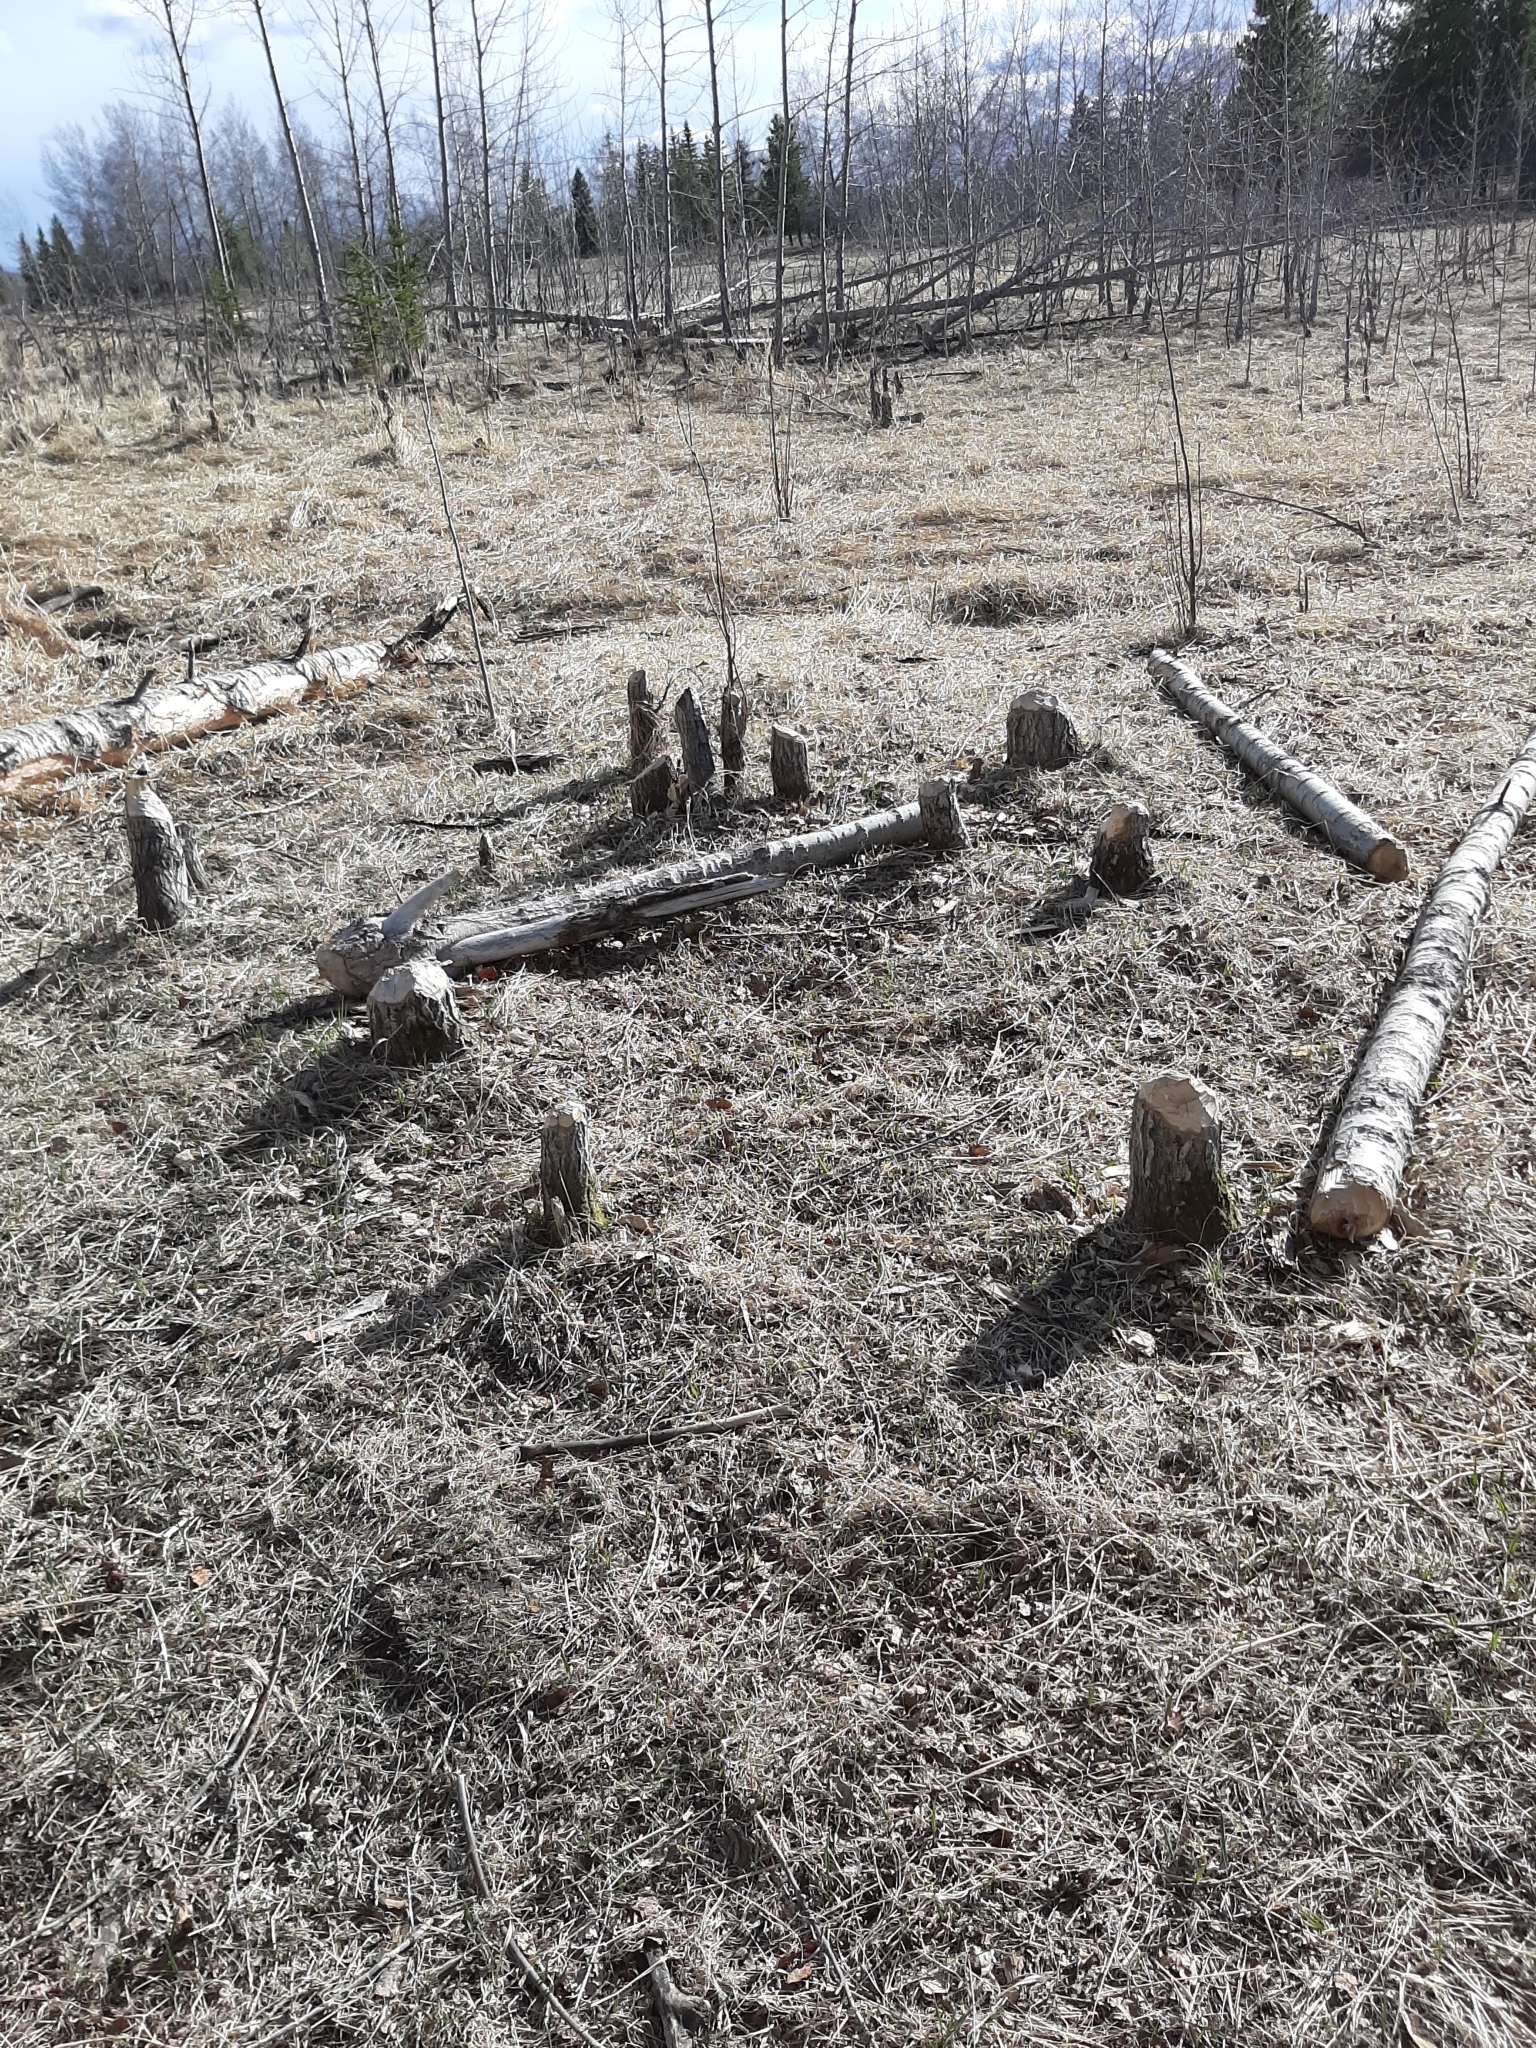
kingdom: Animalia
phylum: Chordata
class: Mammalia
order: Rodentia
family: Castoridae
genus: Castor
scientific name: Castor canadensis
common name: American beaver
